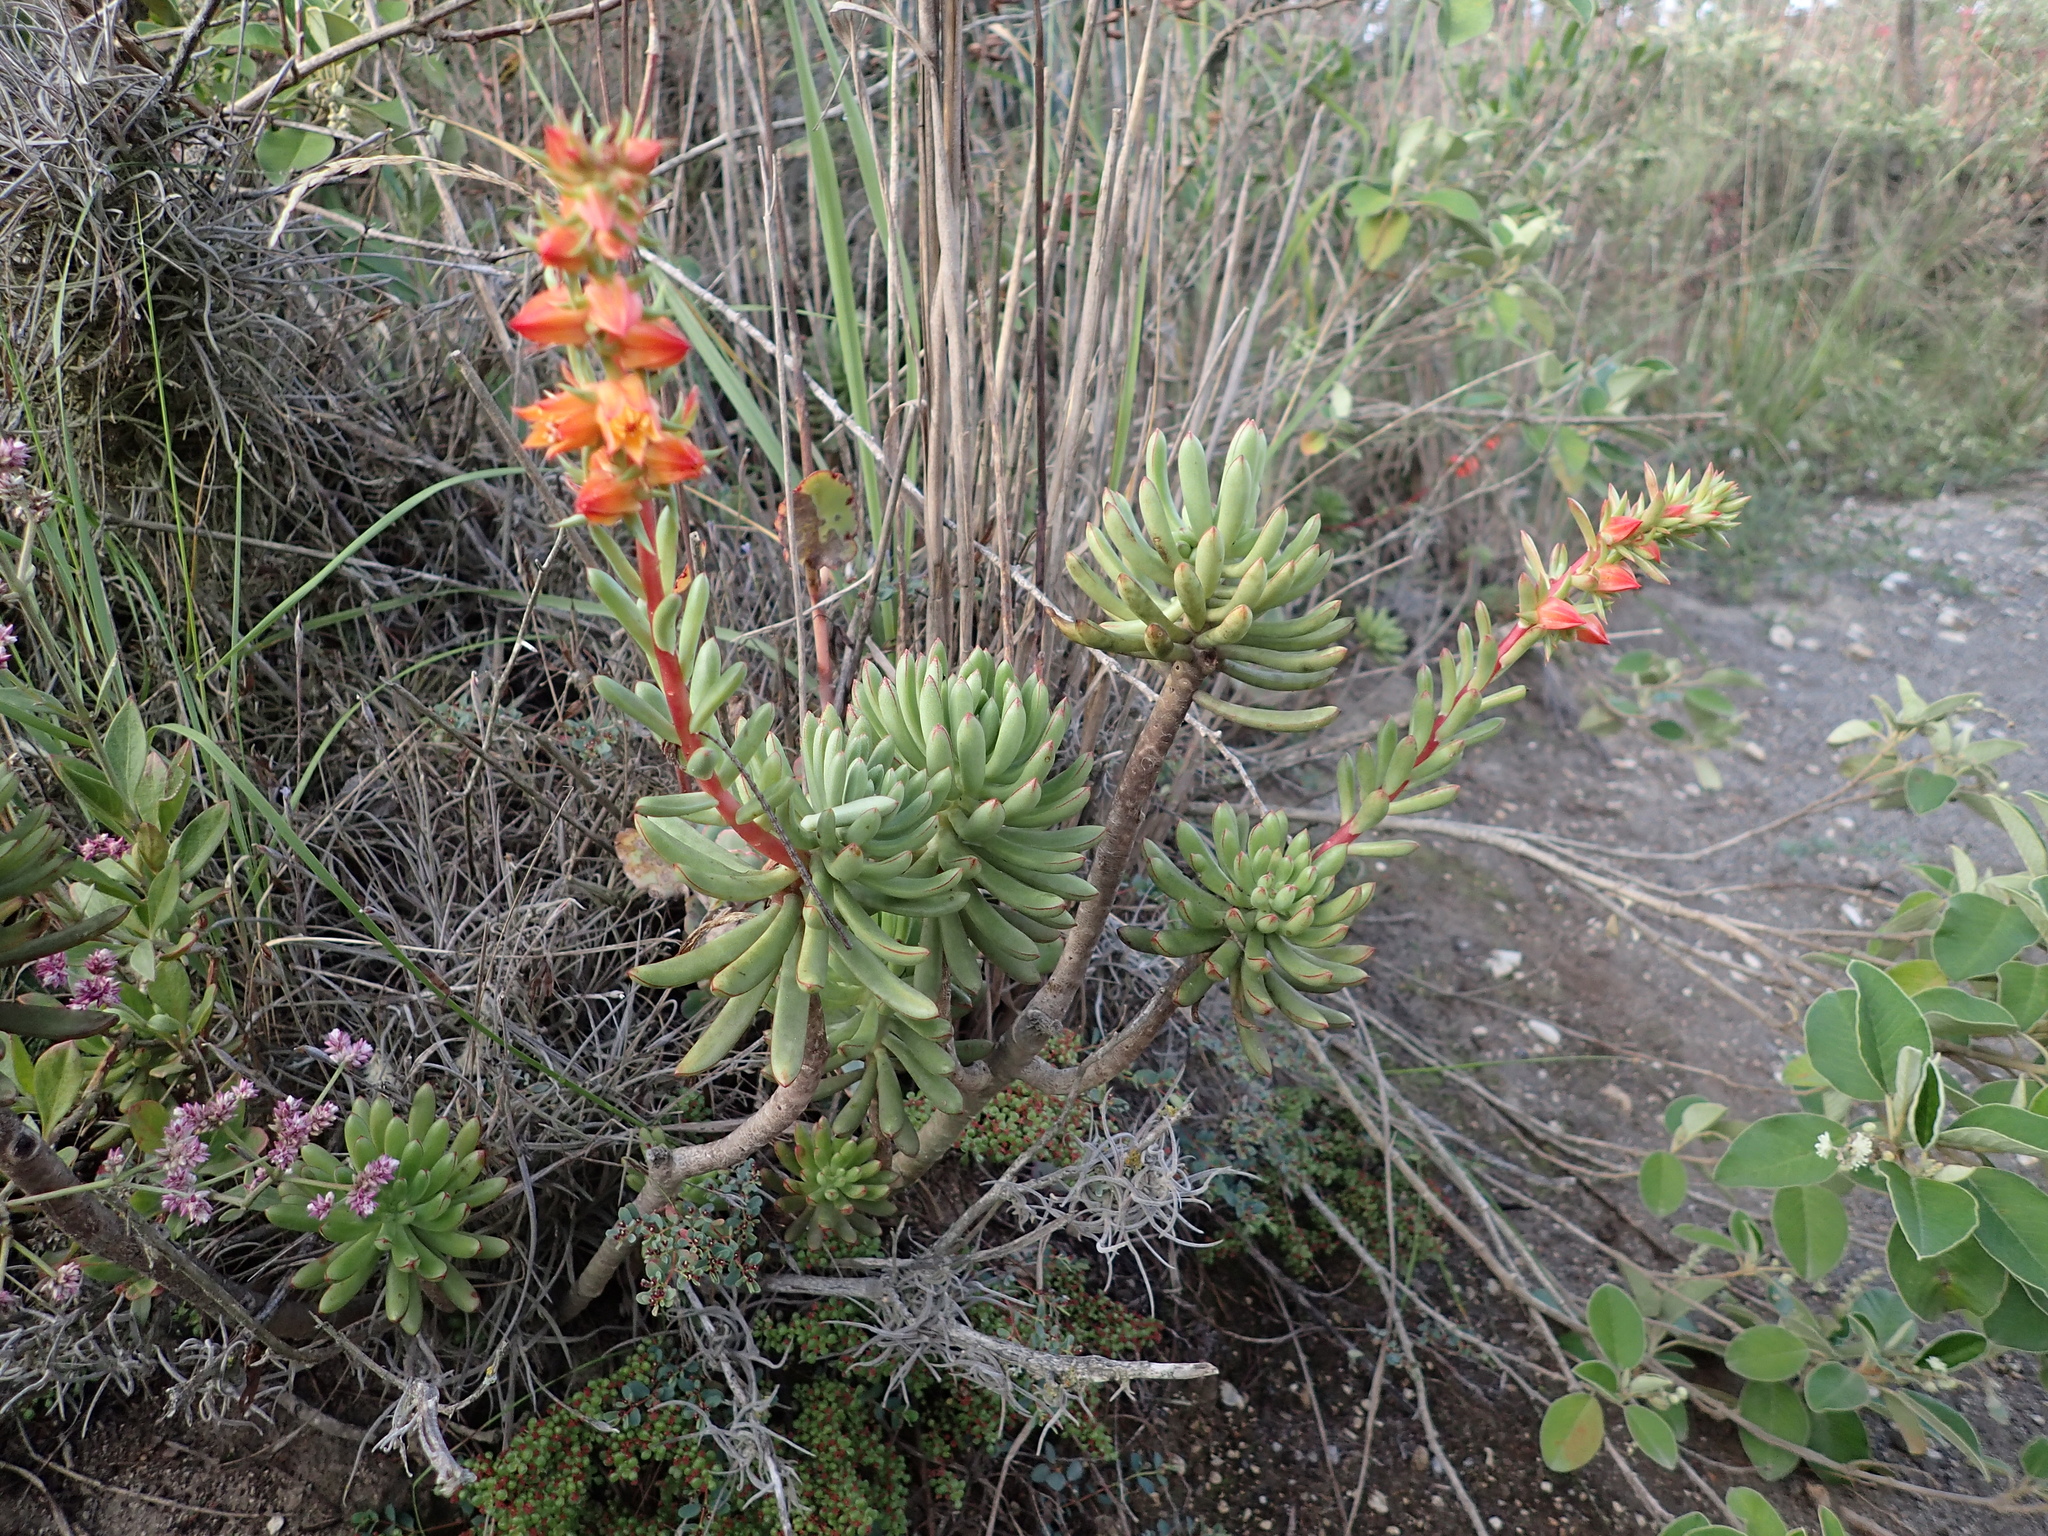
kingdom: Plantae
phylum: Tracheophyta
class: Magnoliopsida
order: Saxifragales
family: Crassulaceae
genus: Echeveria
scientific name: Echeveria quitensis
